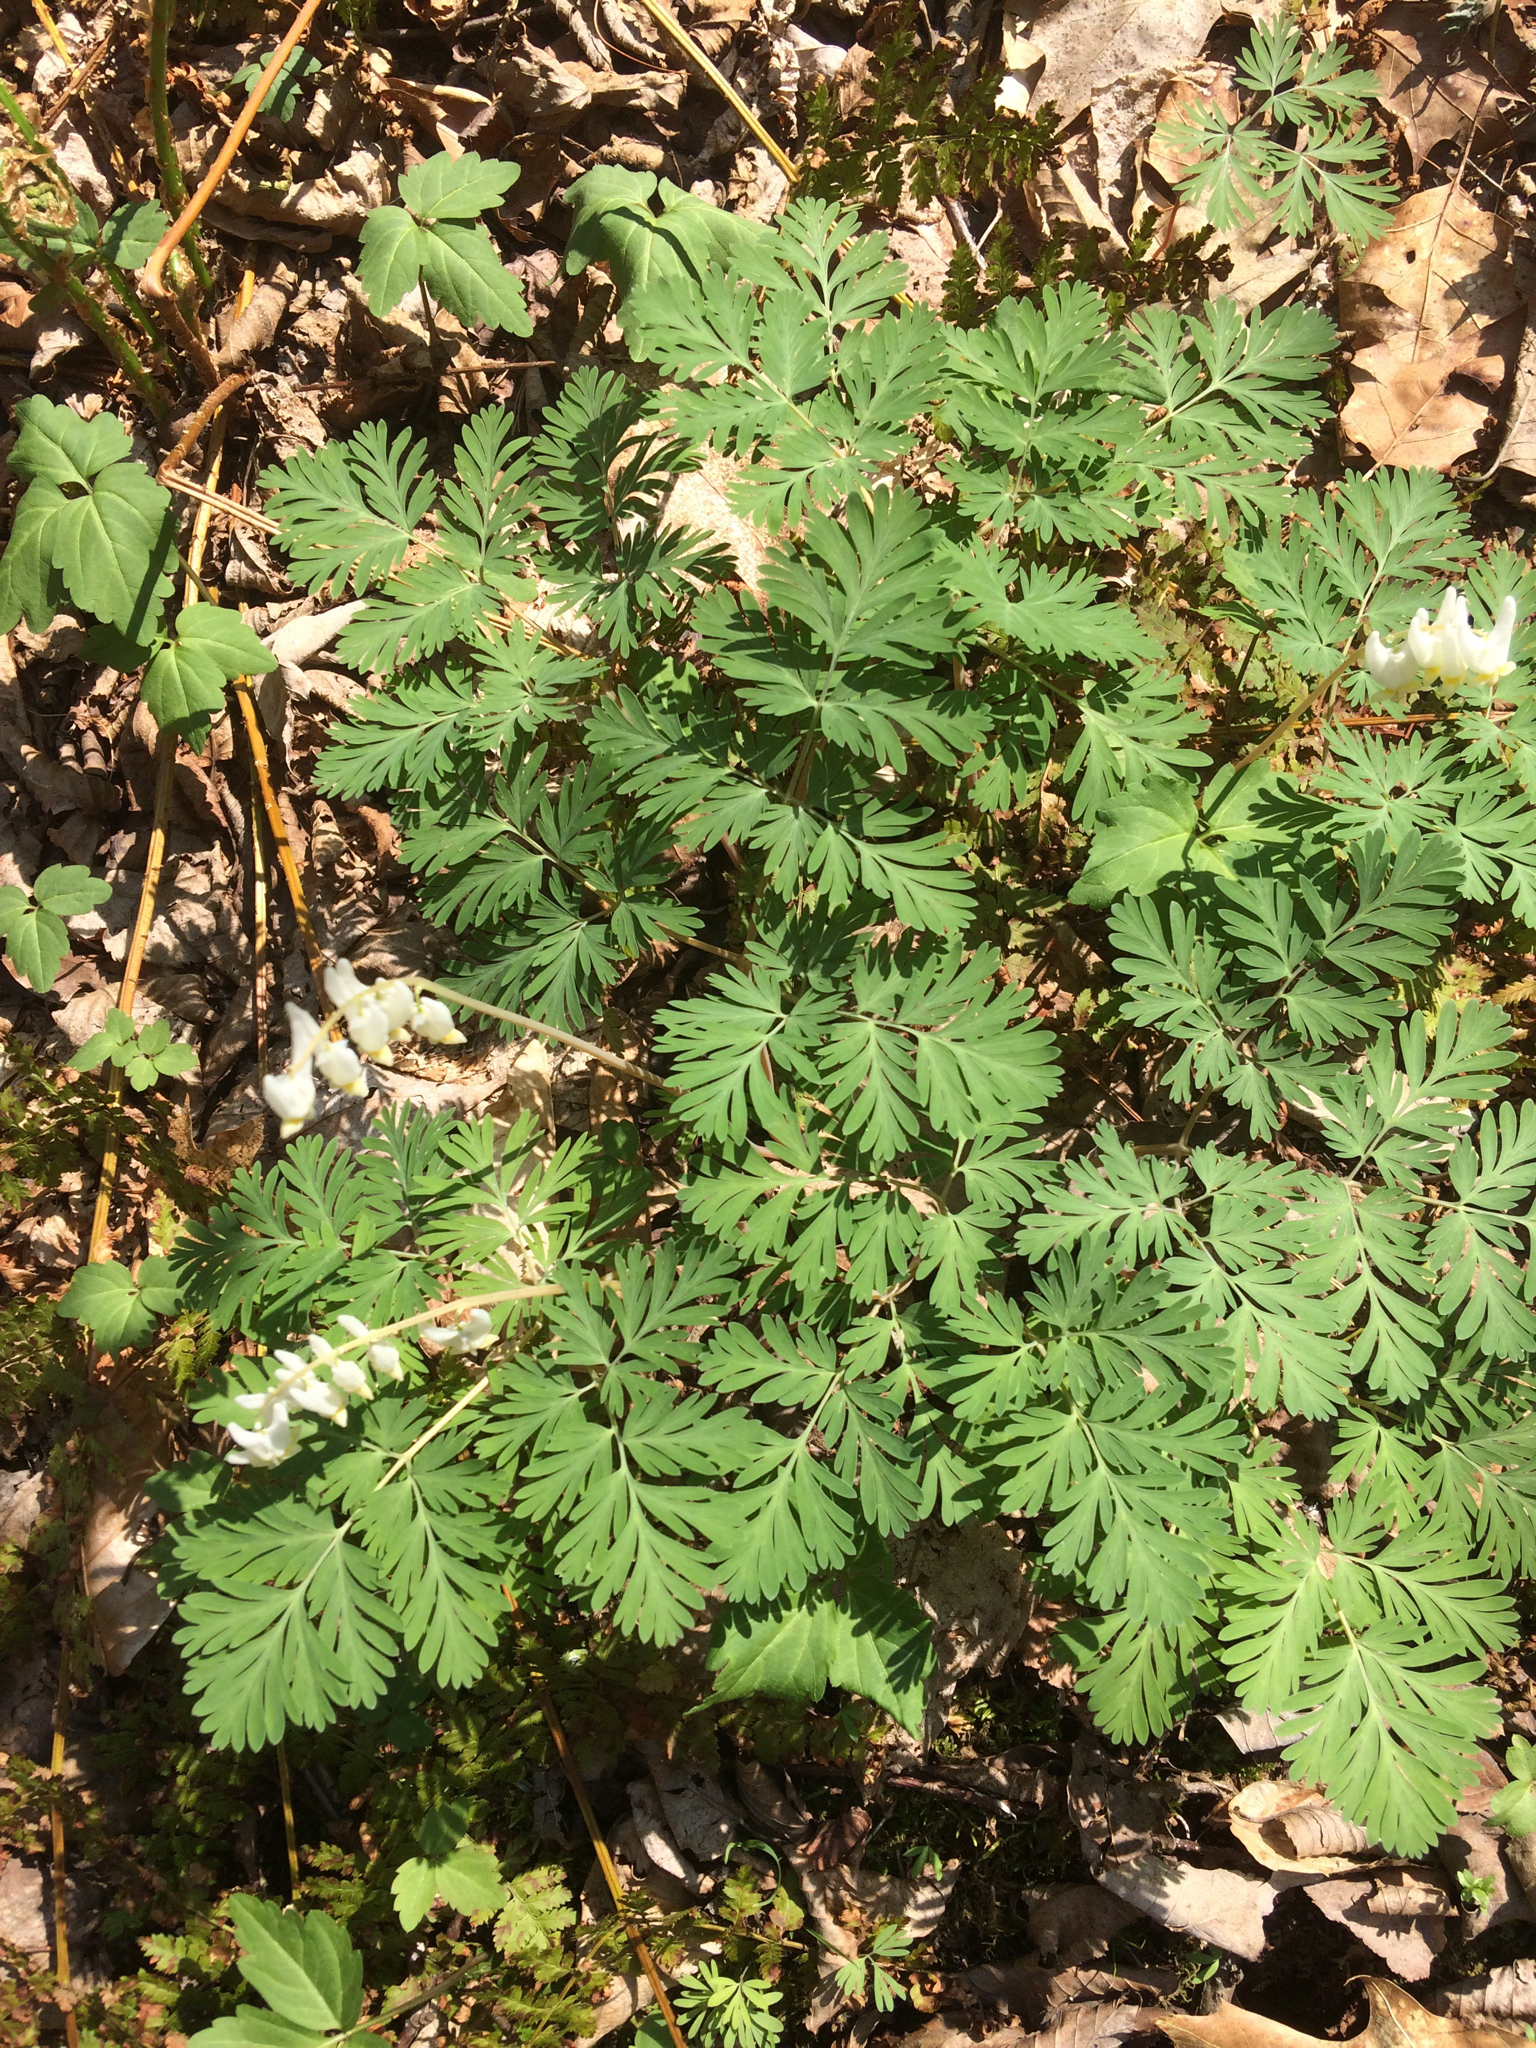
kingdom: Plantae
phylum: Tracheophyta
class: Magnoliopsida
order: Ranunculales
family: Papaveraceae
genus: Dicentra
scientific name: Dicentra cucullaria
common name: Dutchman's breeches
